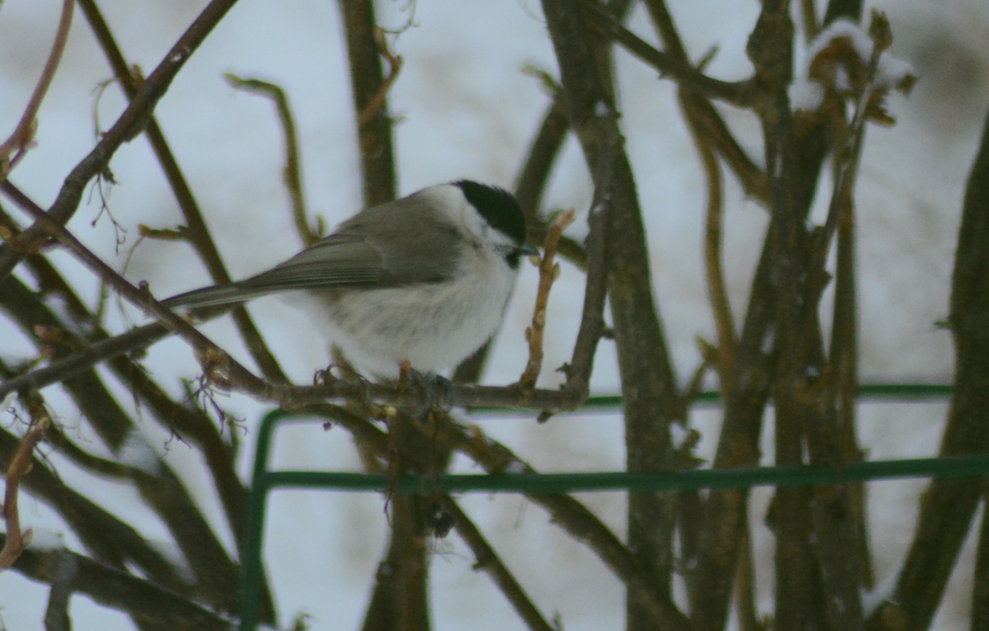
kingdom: Animalia
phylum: Chordata
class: Aves
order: Passeriformes
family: Paridae
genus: Poecile
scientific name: Poecile palustris
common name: Marsh tit
